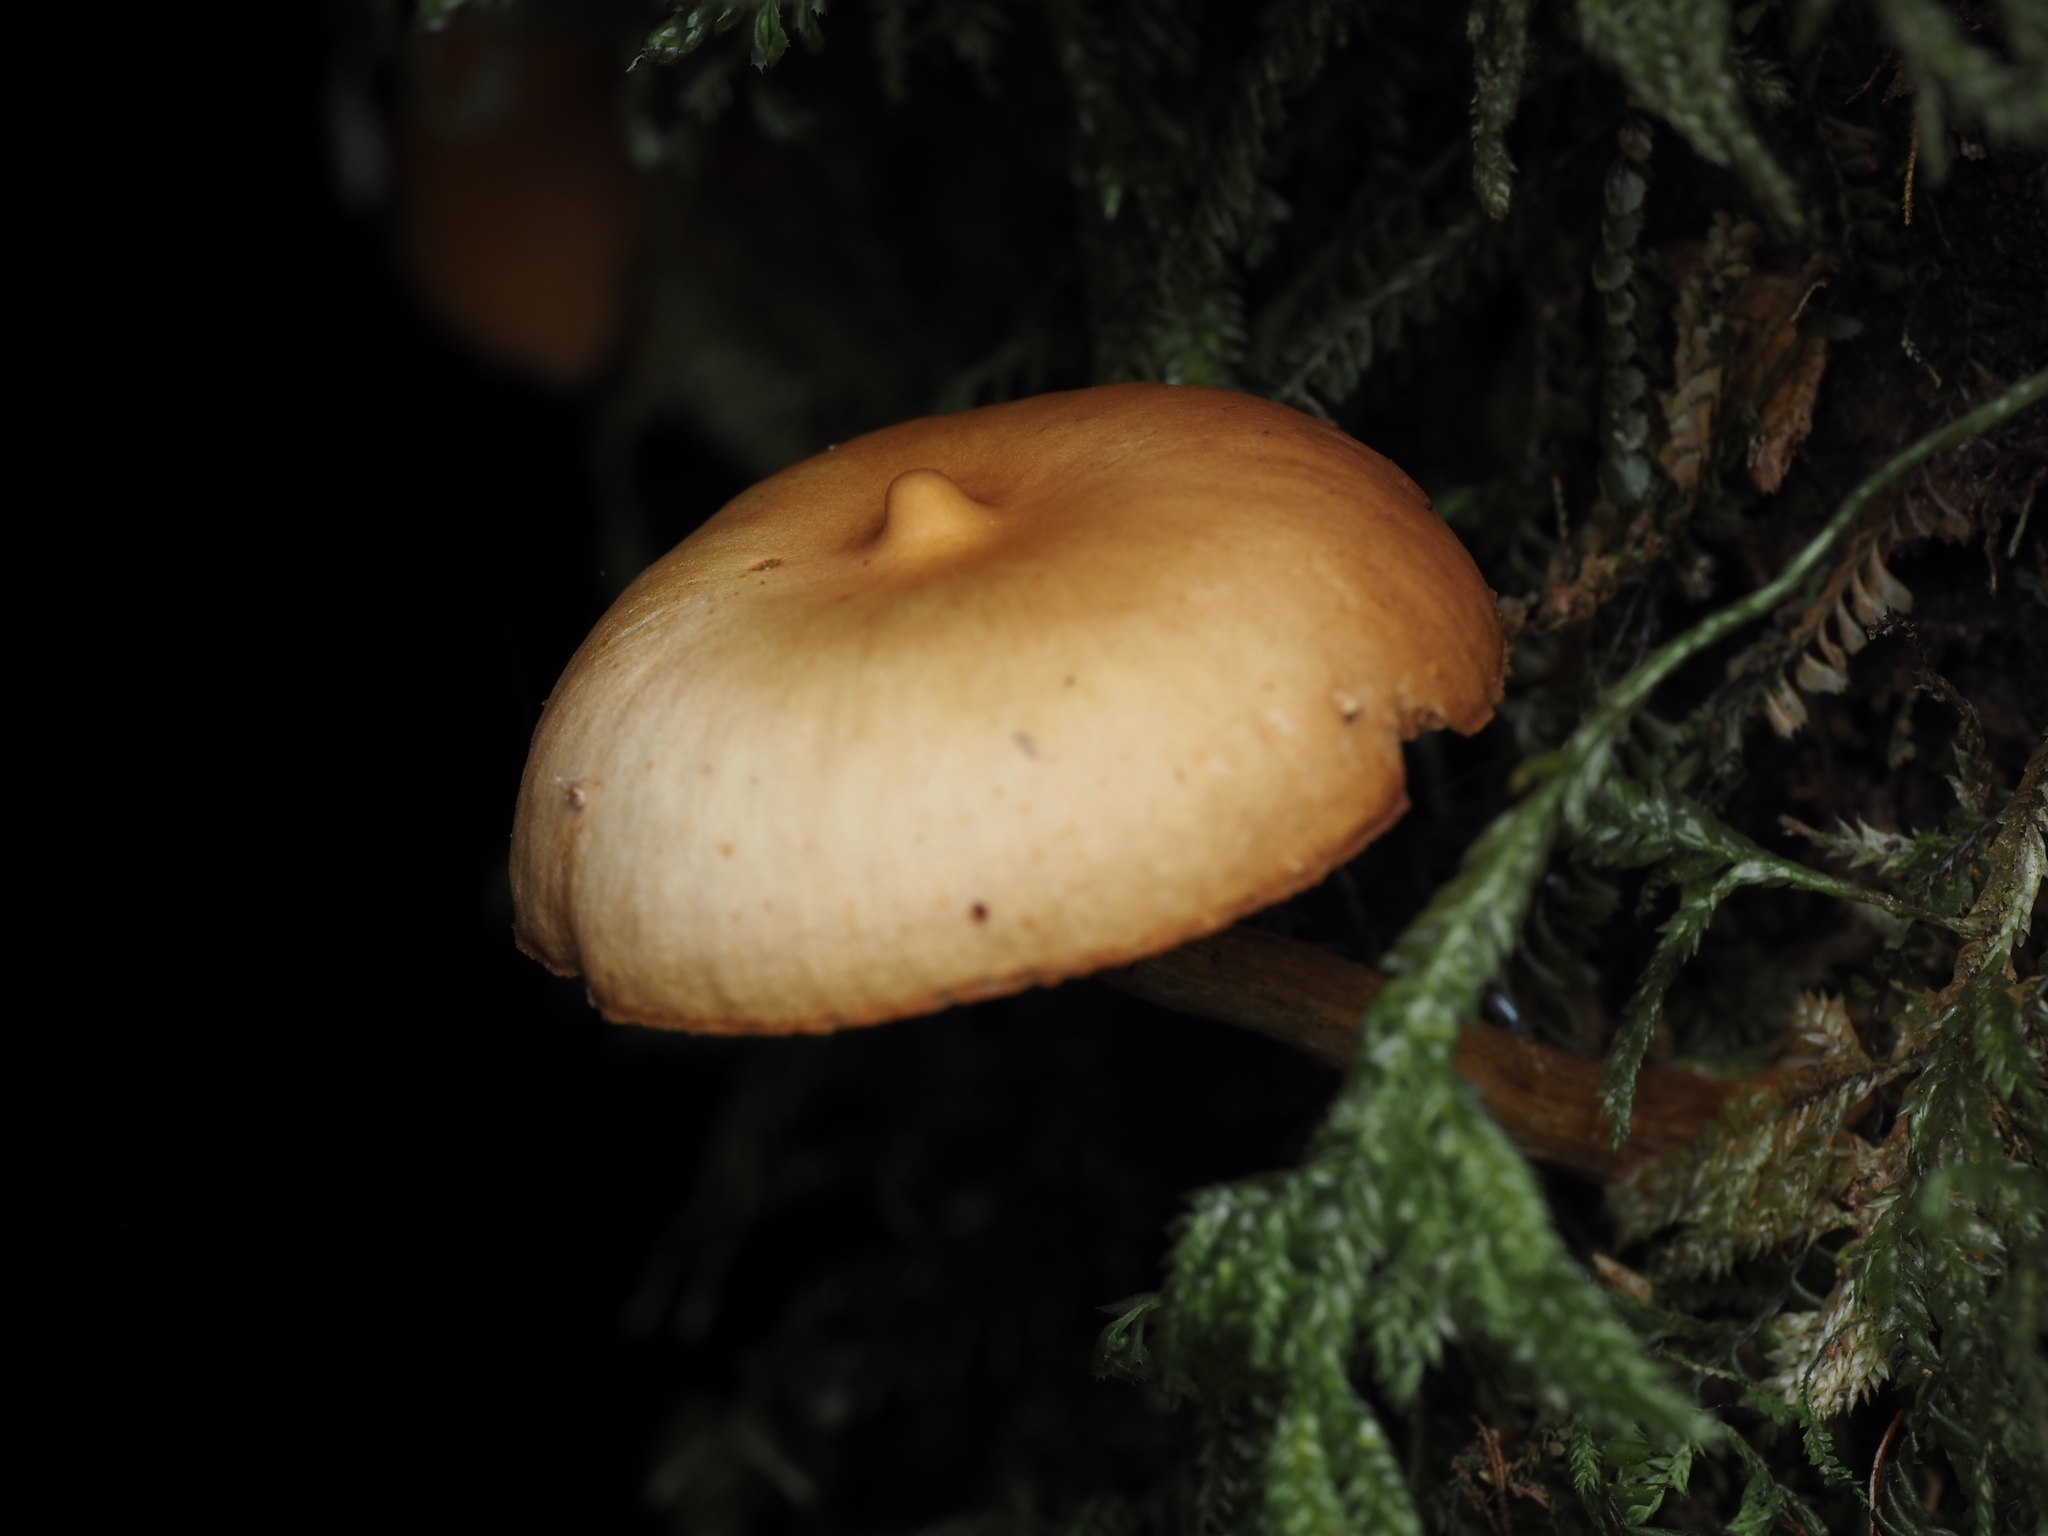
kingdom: Fungi
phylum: Basidiomycota
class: Agaricomycetes
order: Agaricales
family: Hymenogastraceae
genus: Galerina
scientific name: Galerina patagonica
